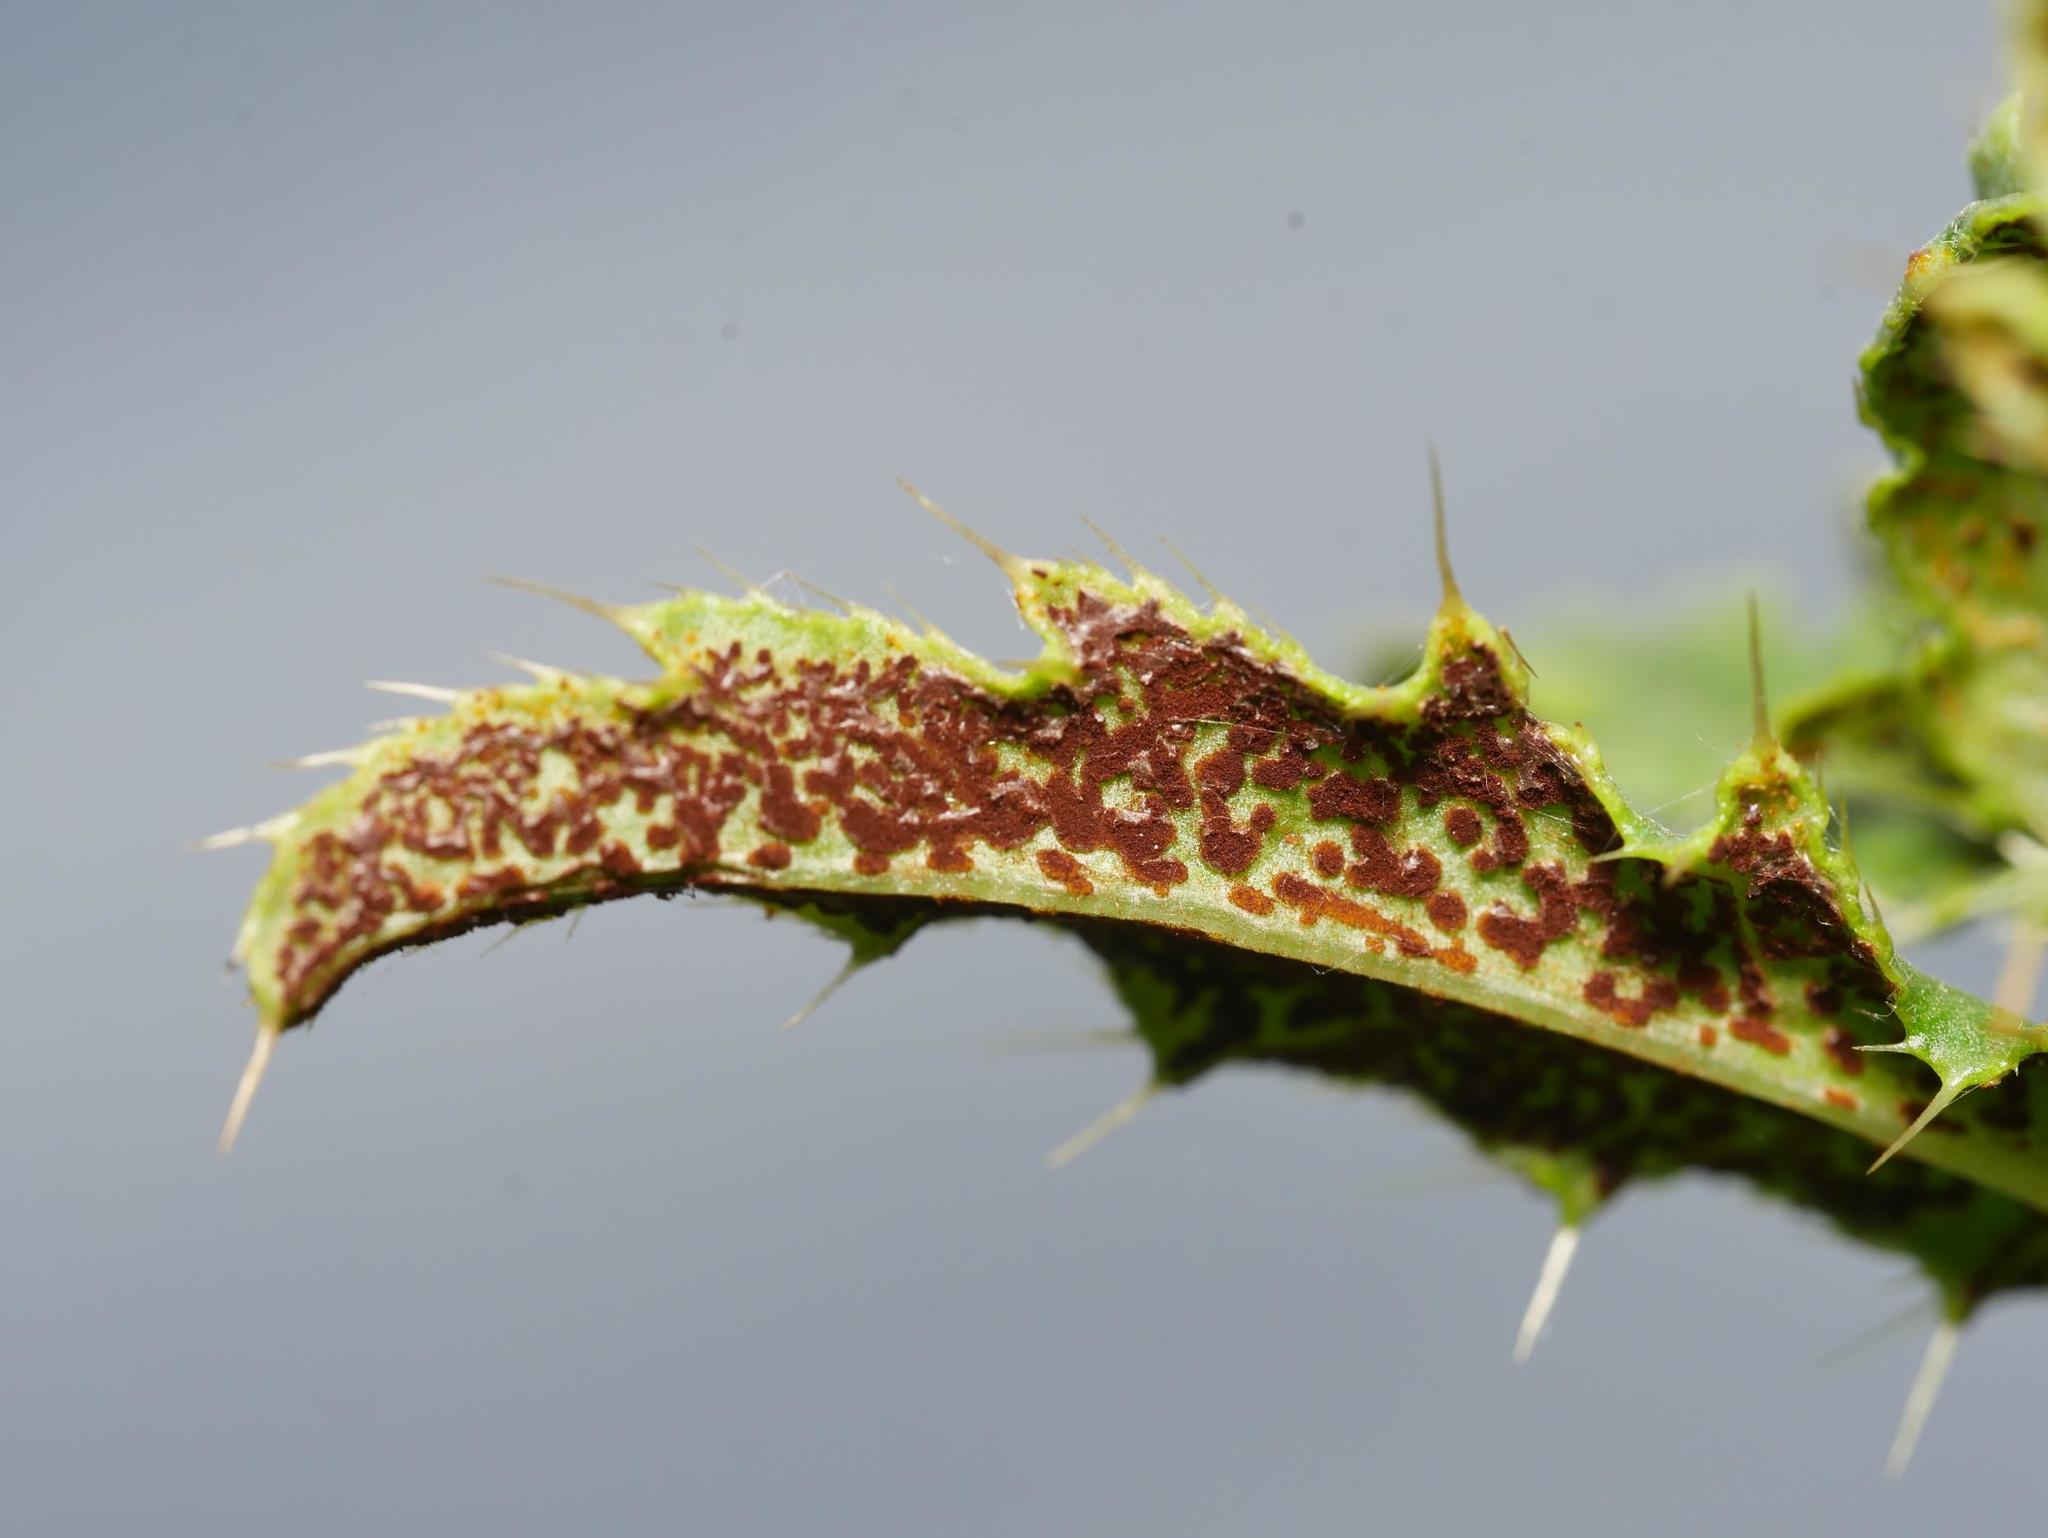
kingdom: Fungi
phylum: Basidiomycota
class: Pucciniomycetes
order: Pucciniales
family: Pucciniaceae
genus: Puccinia
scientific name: Puccinia suaveolens
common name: Thistle rust
